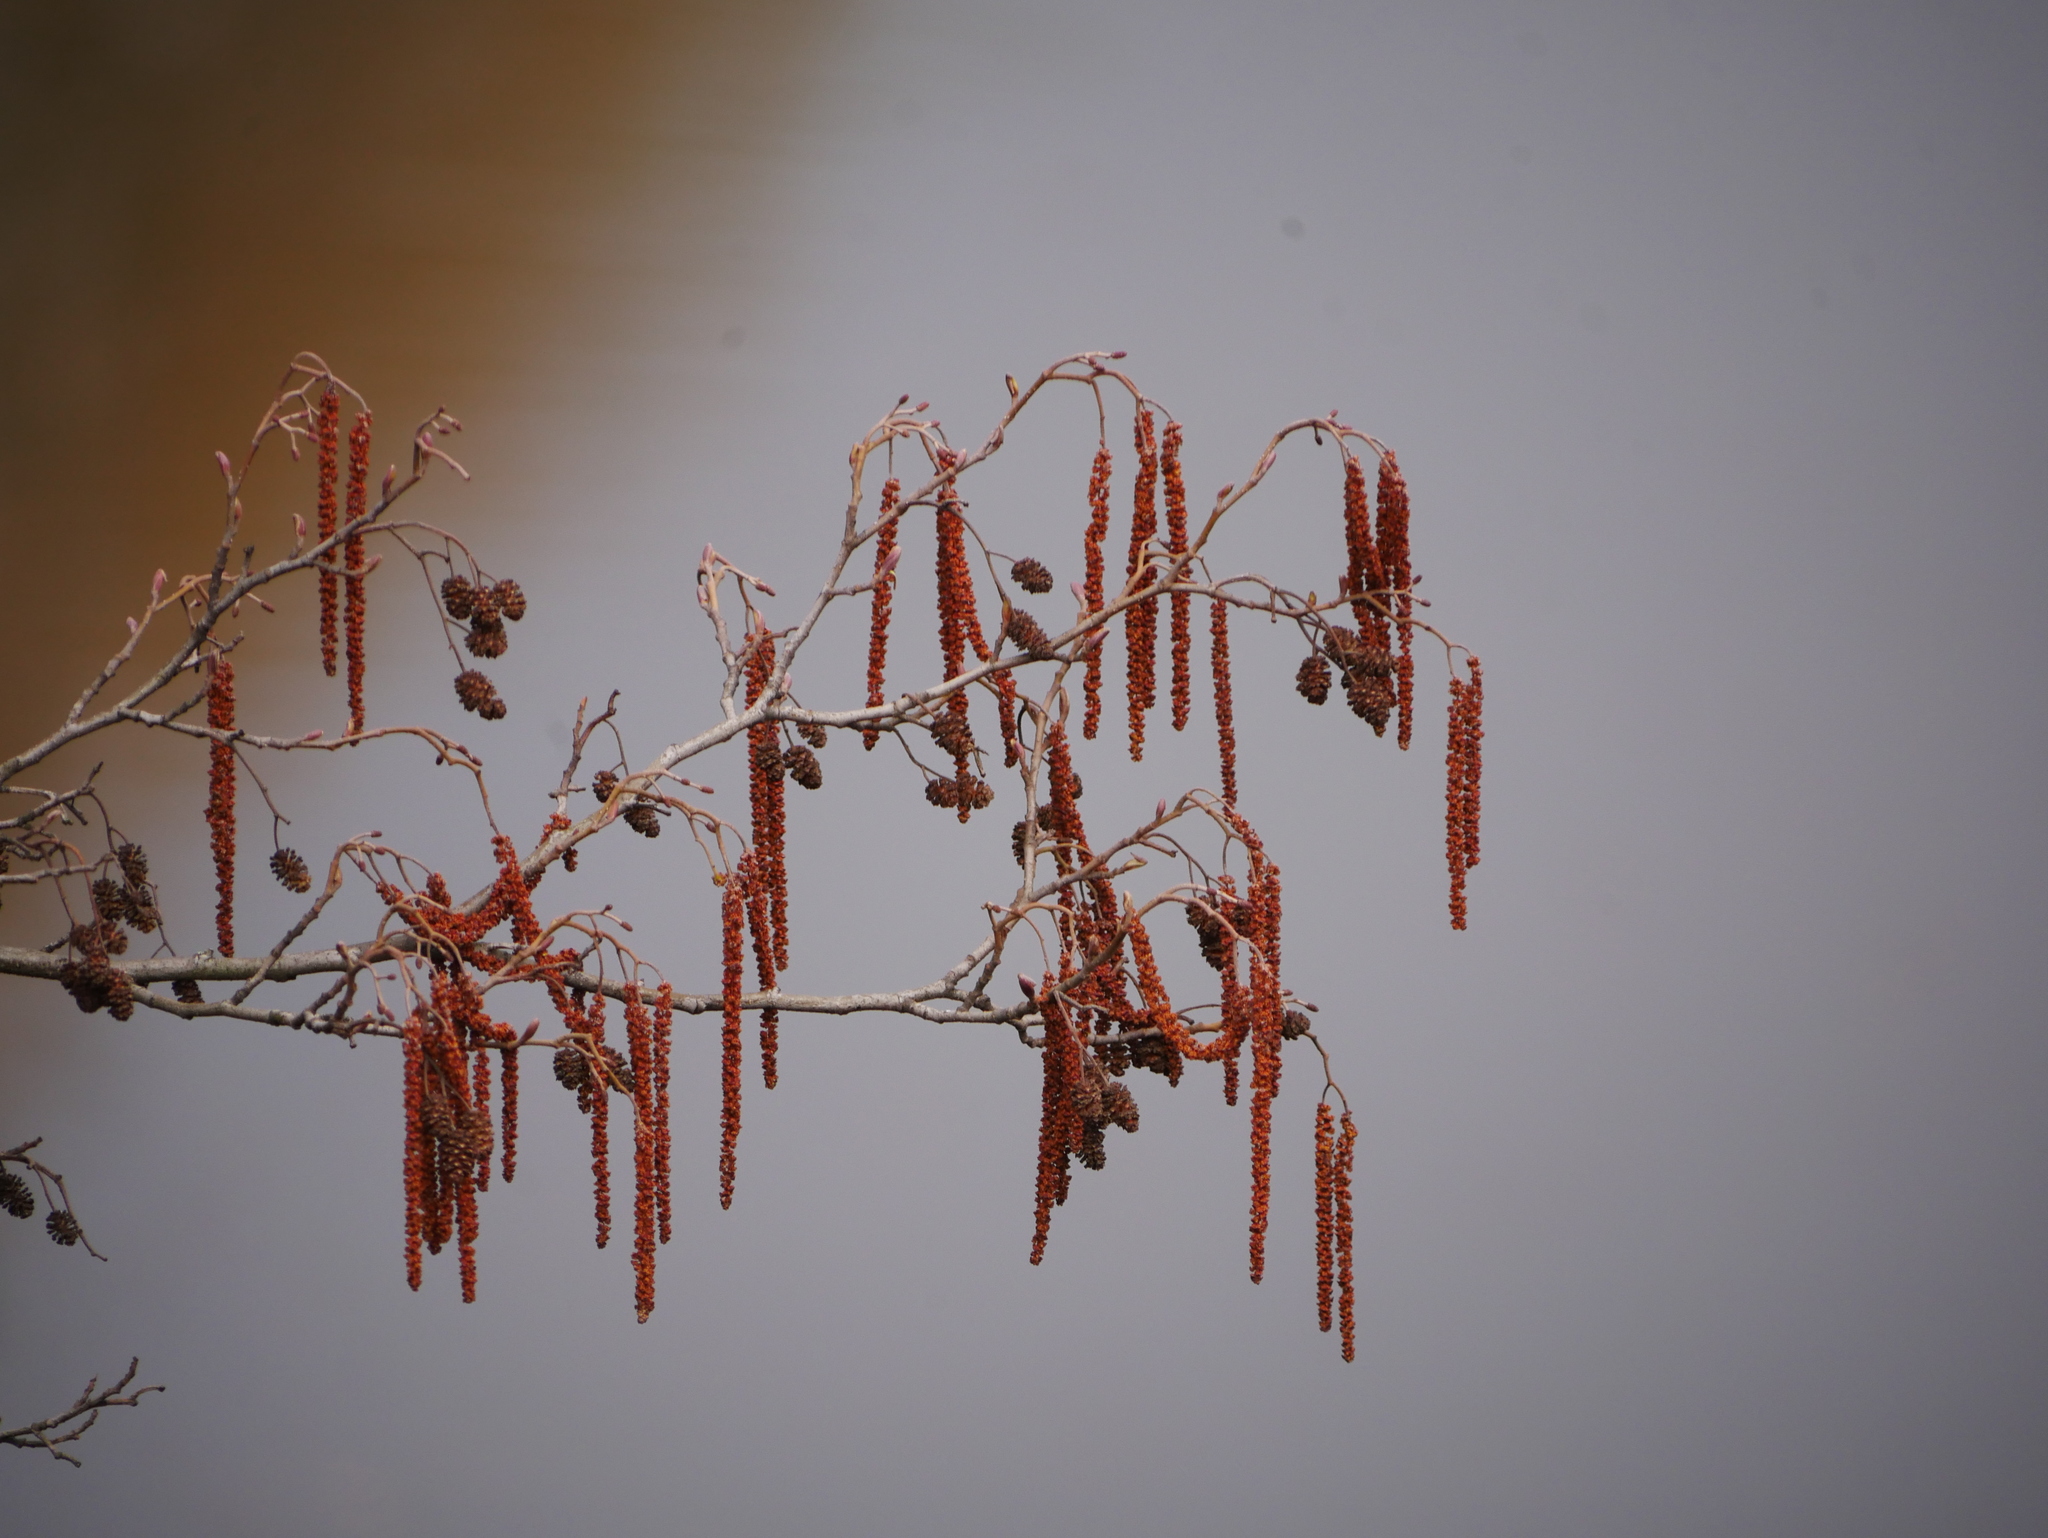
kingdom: Plantae
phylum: Tracheophyta
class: Magnoliopsida
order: Fagales
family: Betulaceae
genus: Alnus
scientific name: Alnus glutinosa
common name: Black alder
